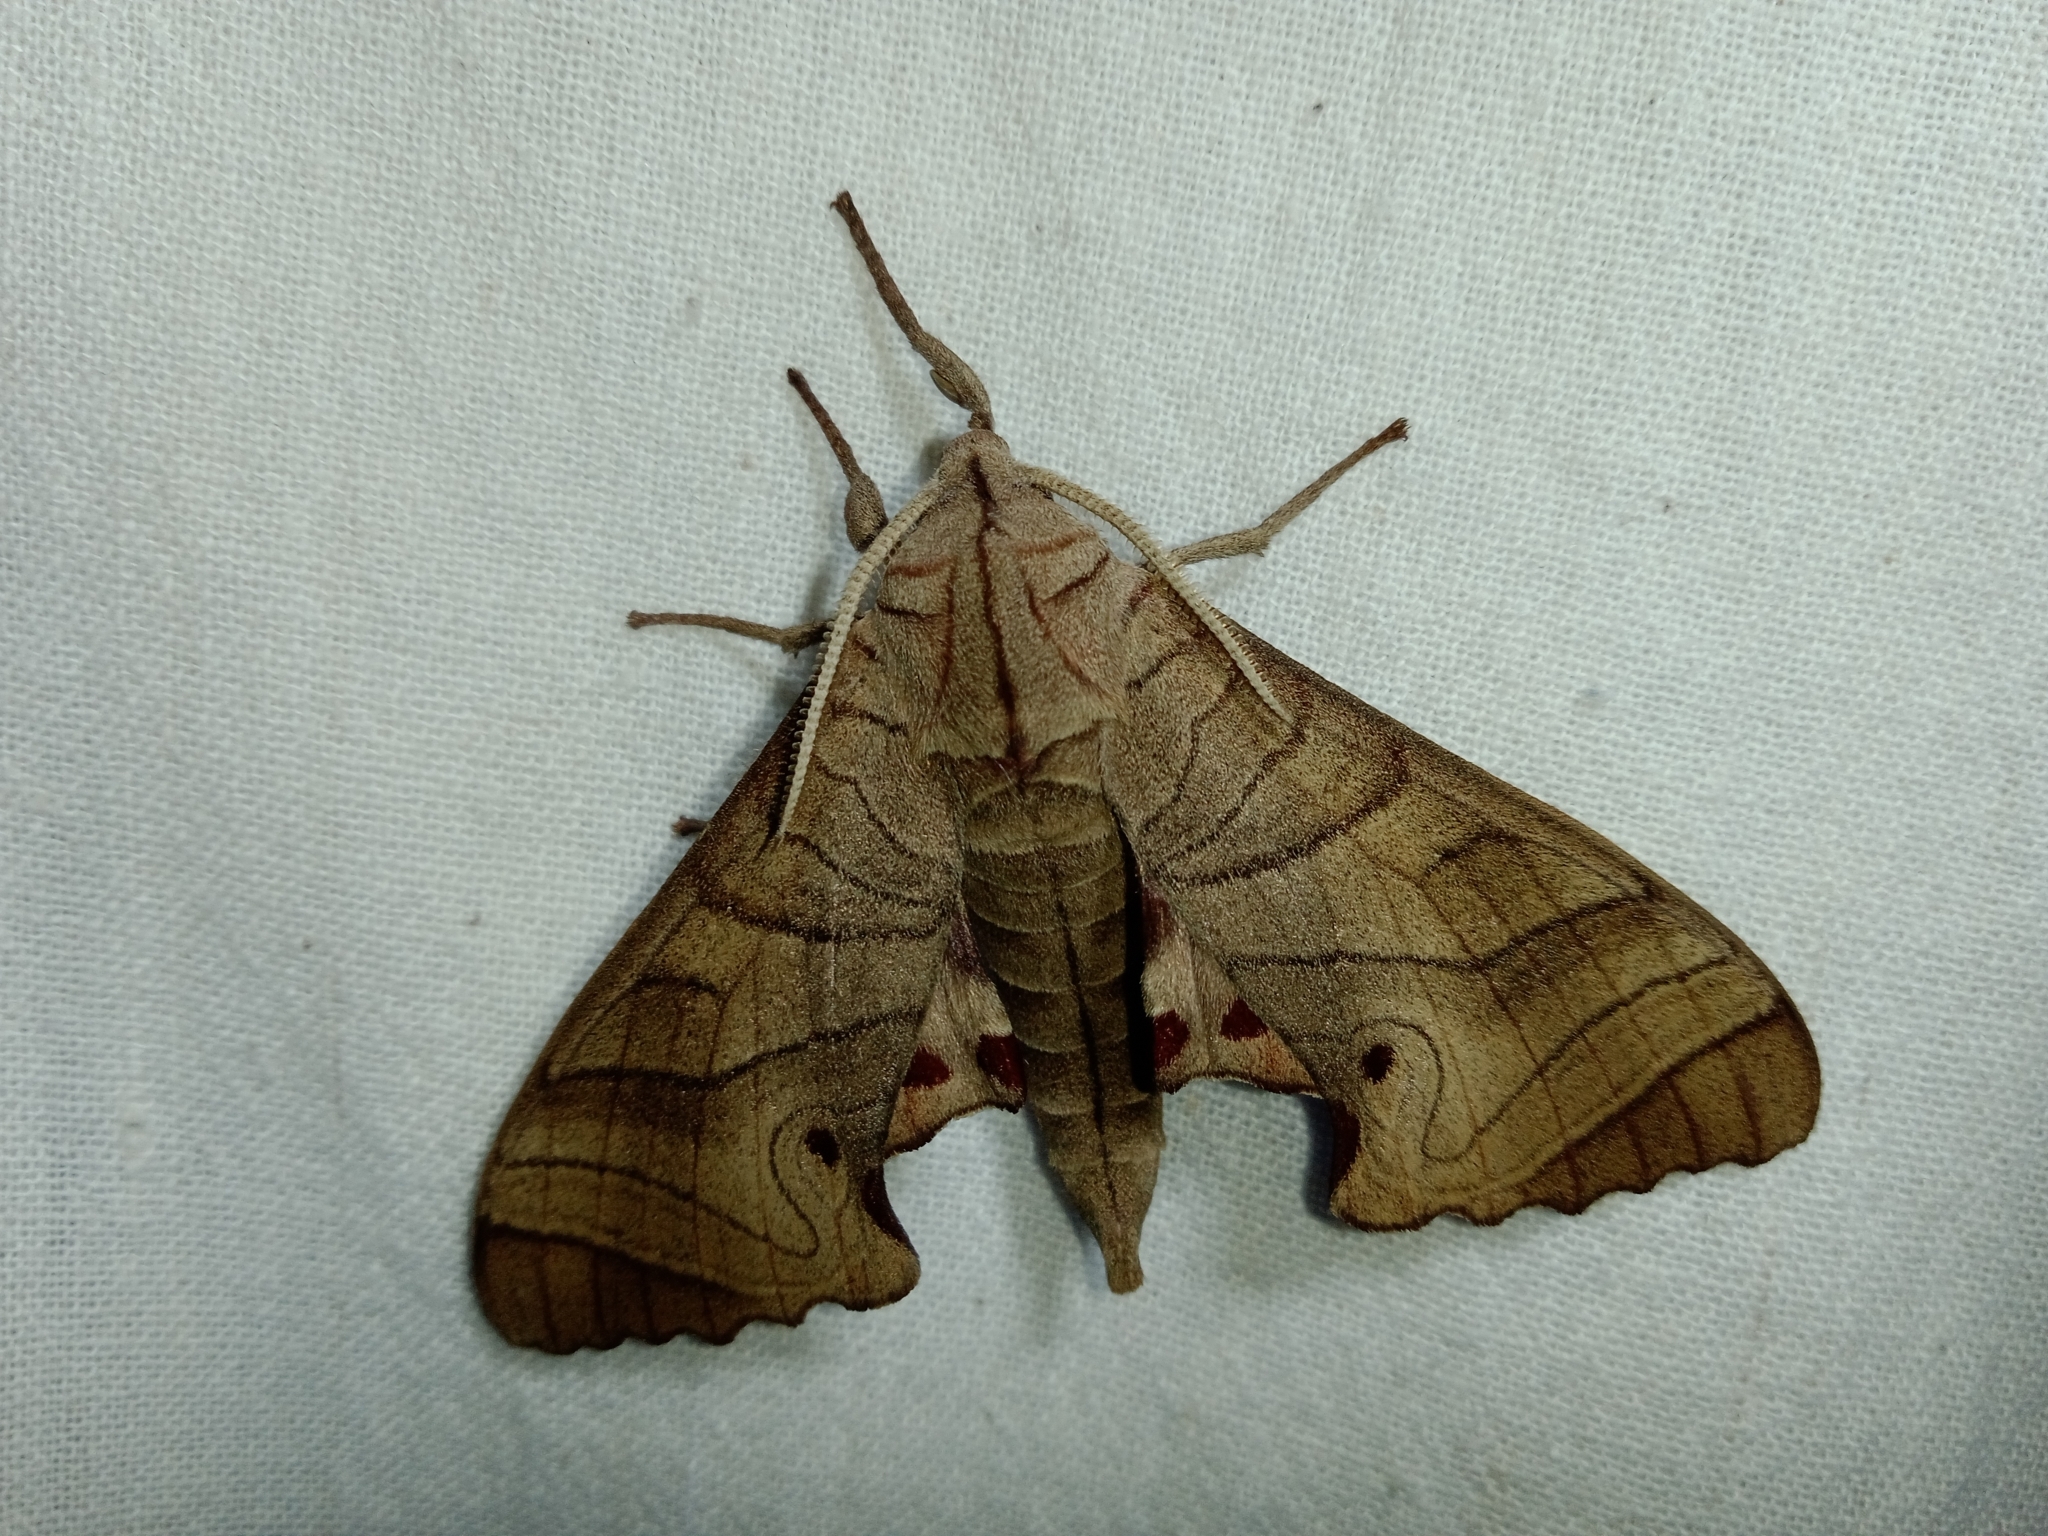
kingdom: Animalia
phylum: Arthropoda
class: Insecta
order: Lepidoptera
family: Sphingidae
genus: Marumba
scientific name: Marumba dyras
